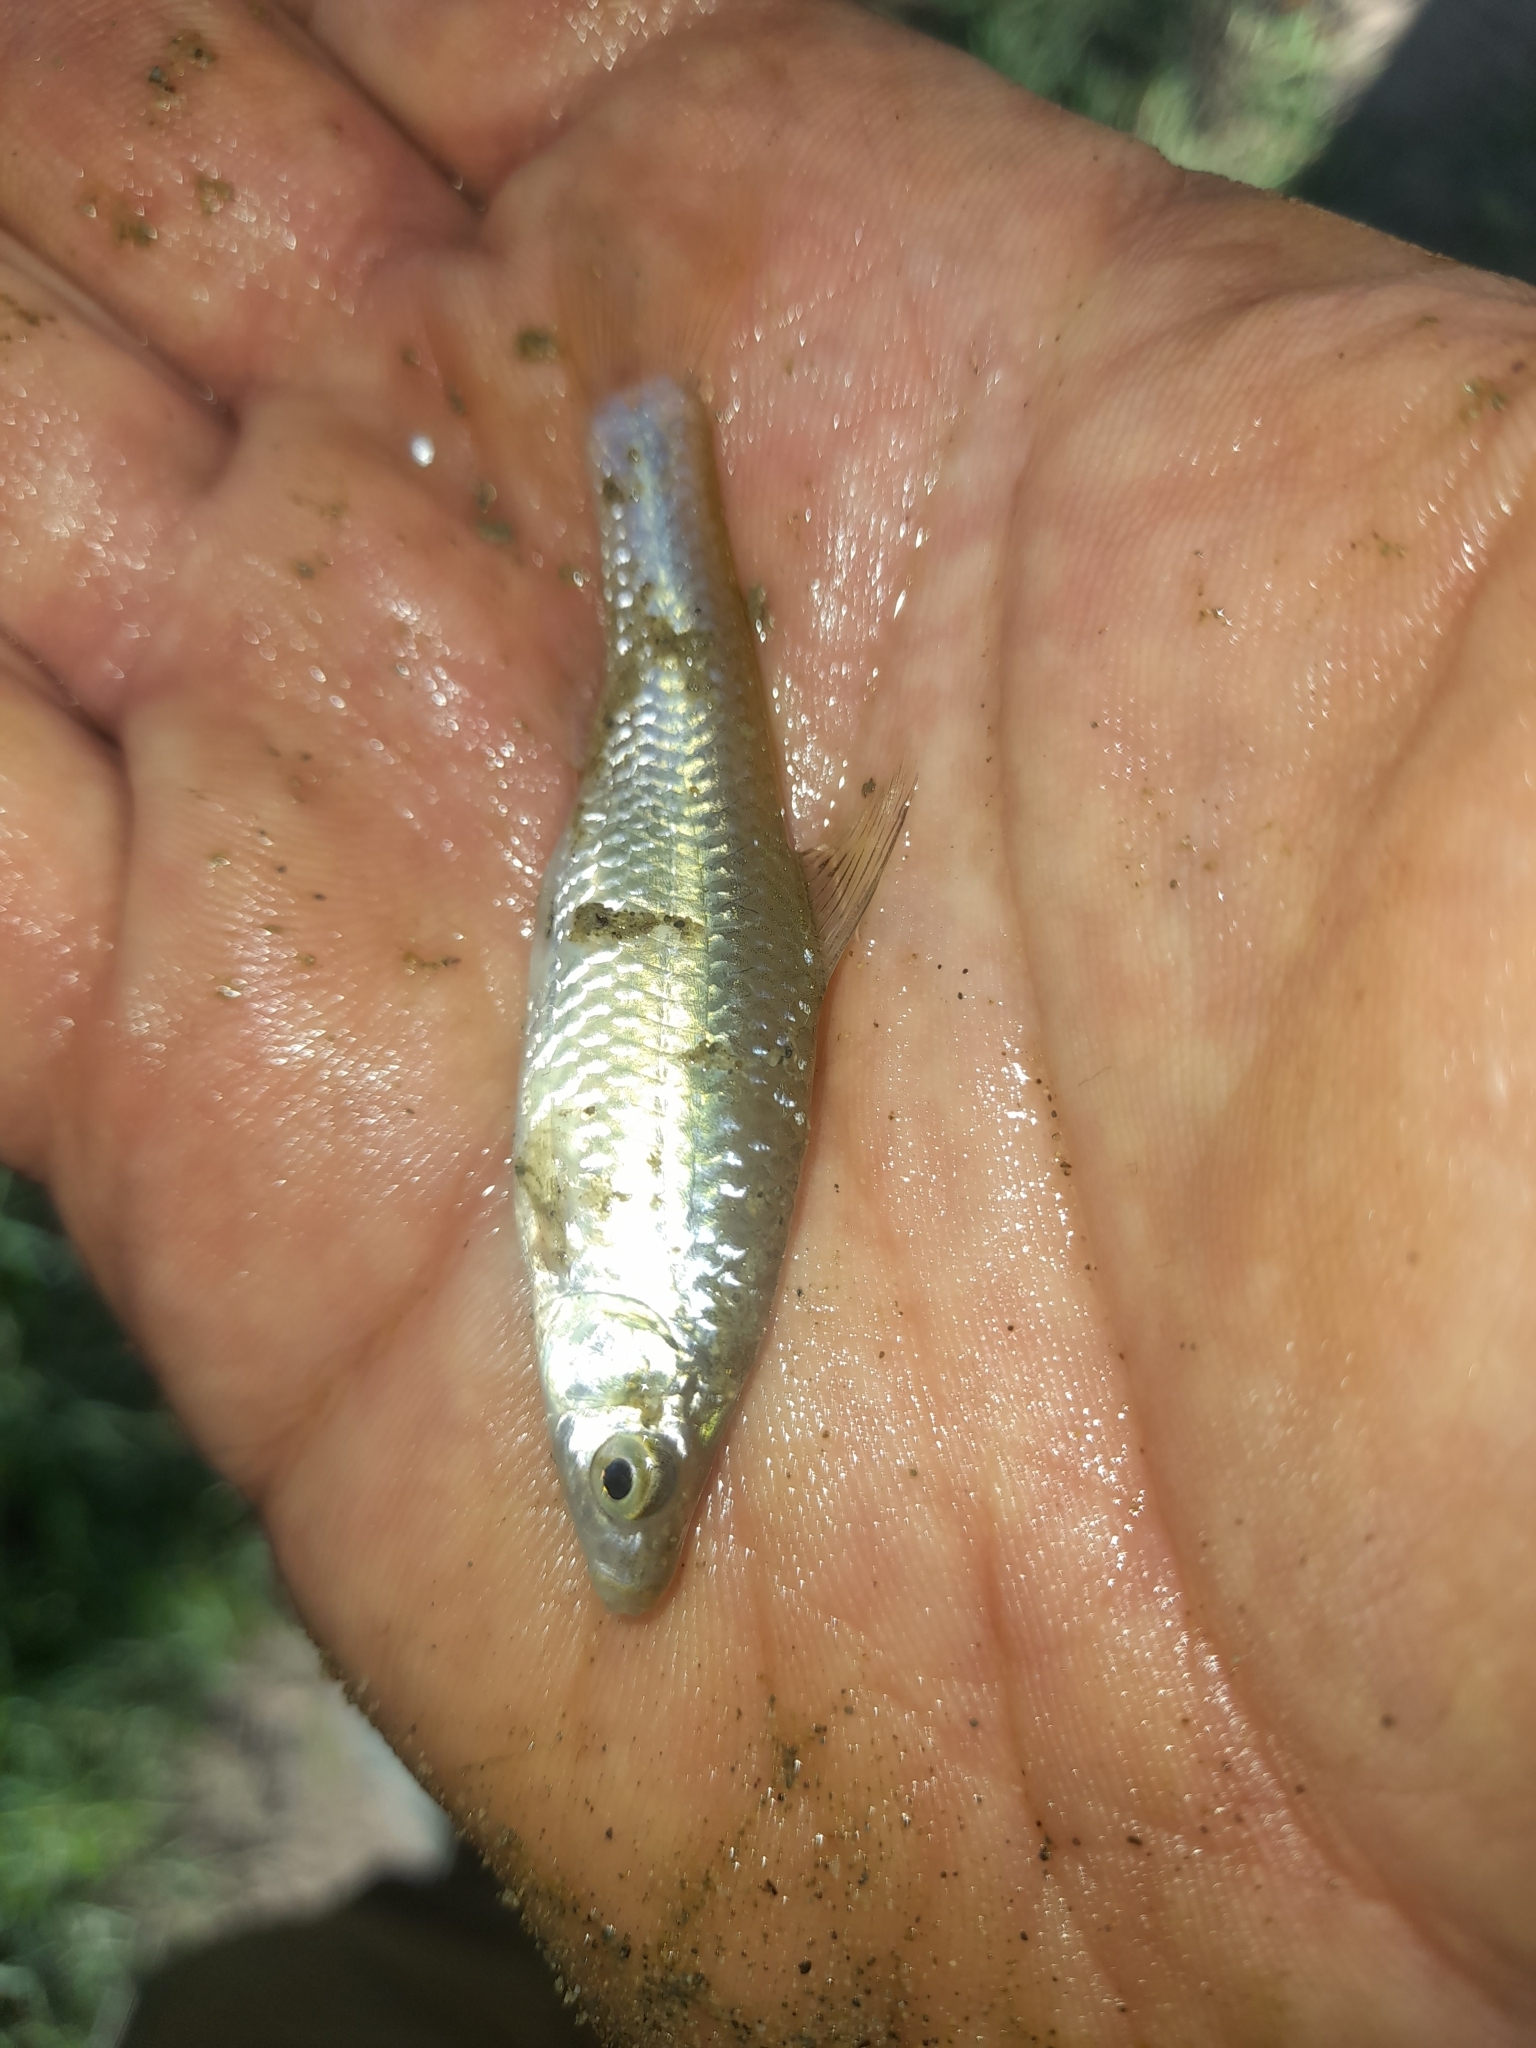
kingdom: Animalia
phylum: Chordata
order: Cypriniformes
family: Cyprinidae
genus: Pseudorasbora
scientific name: Pseudorasbora parva
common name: Topmouth gudgeon
